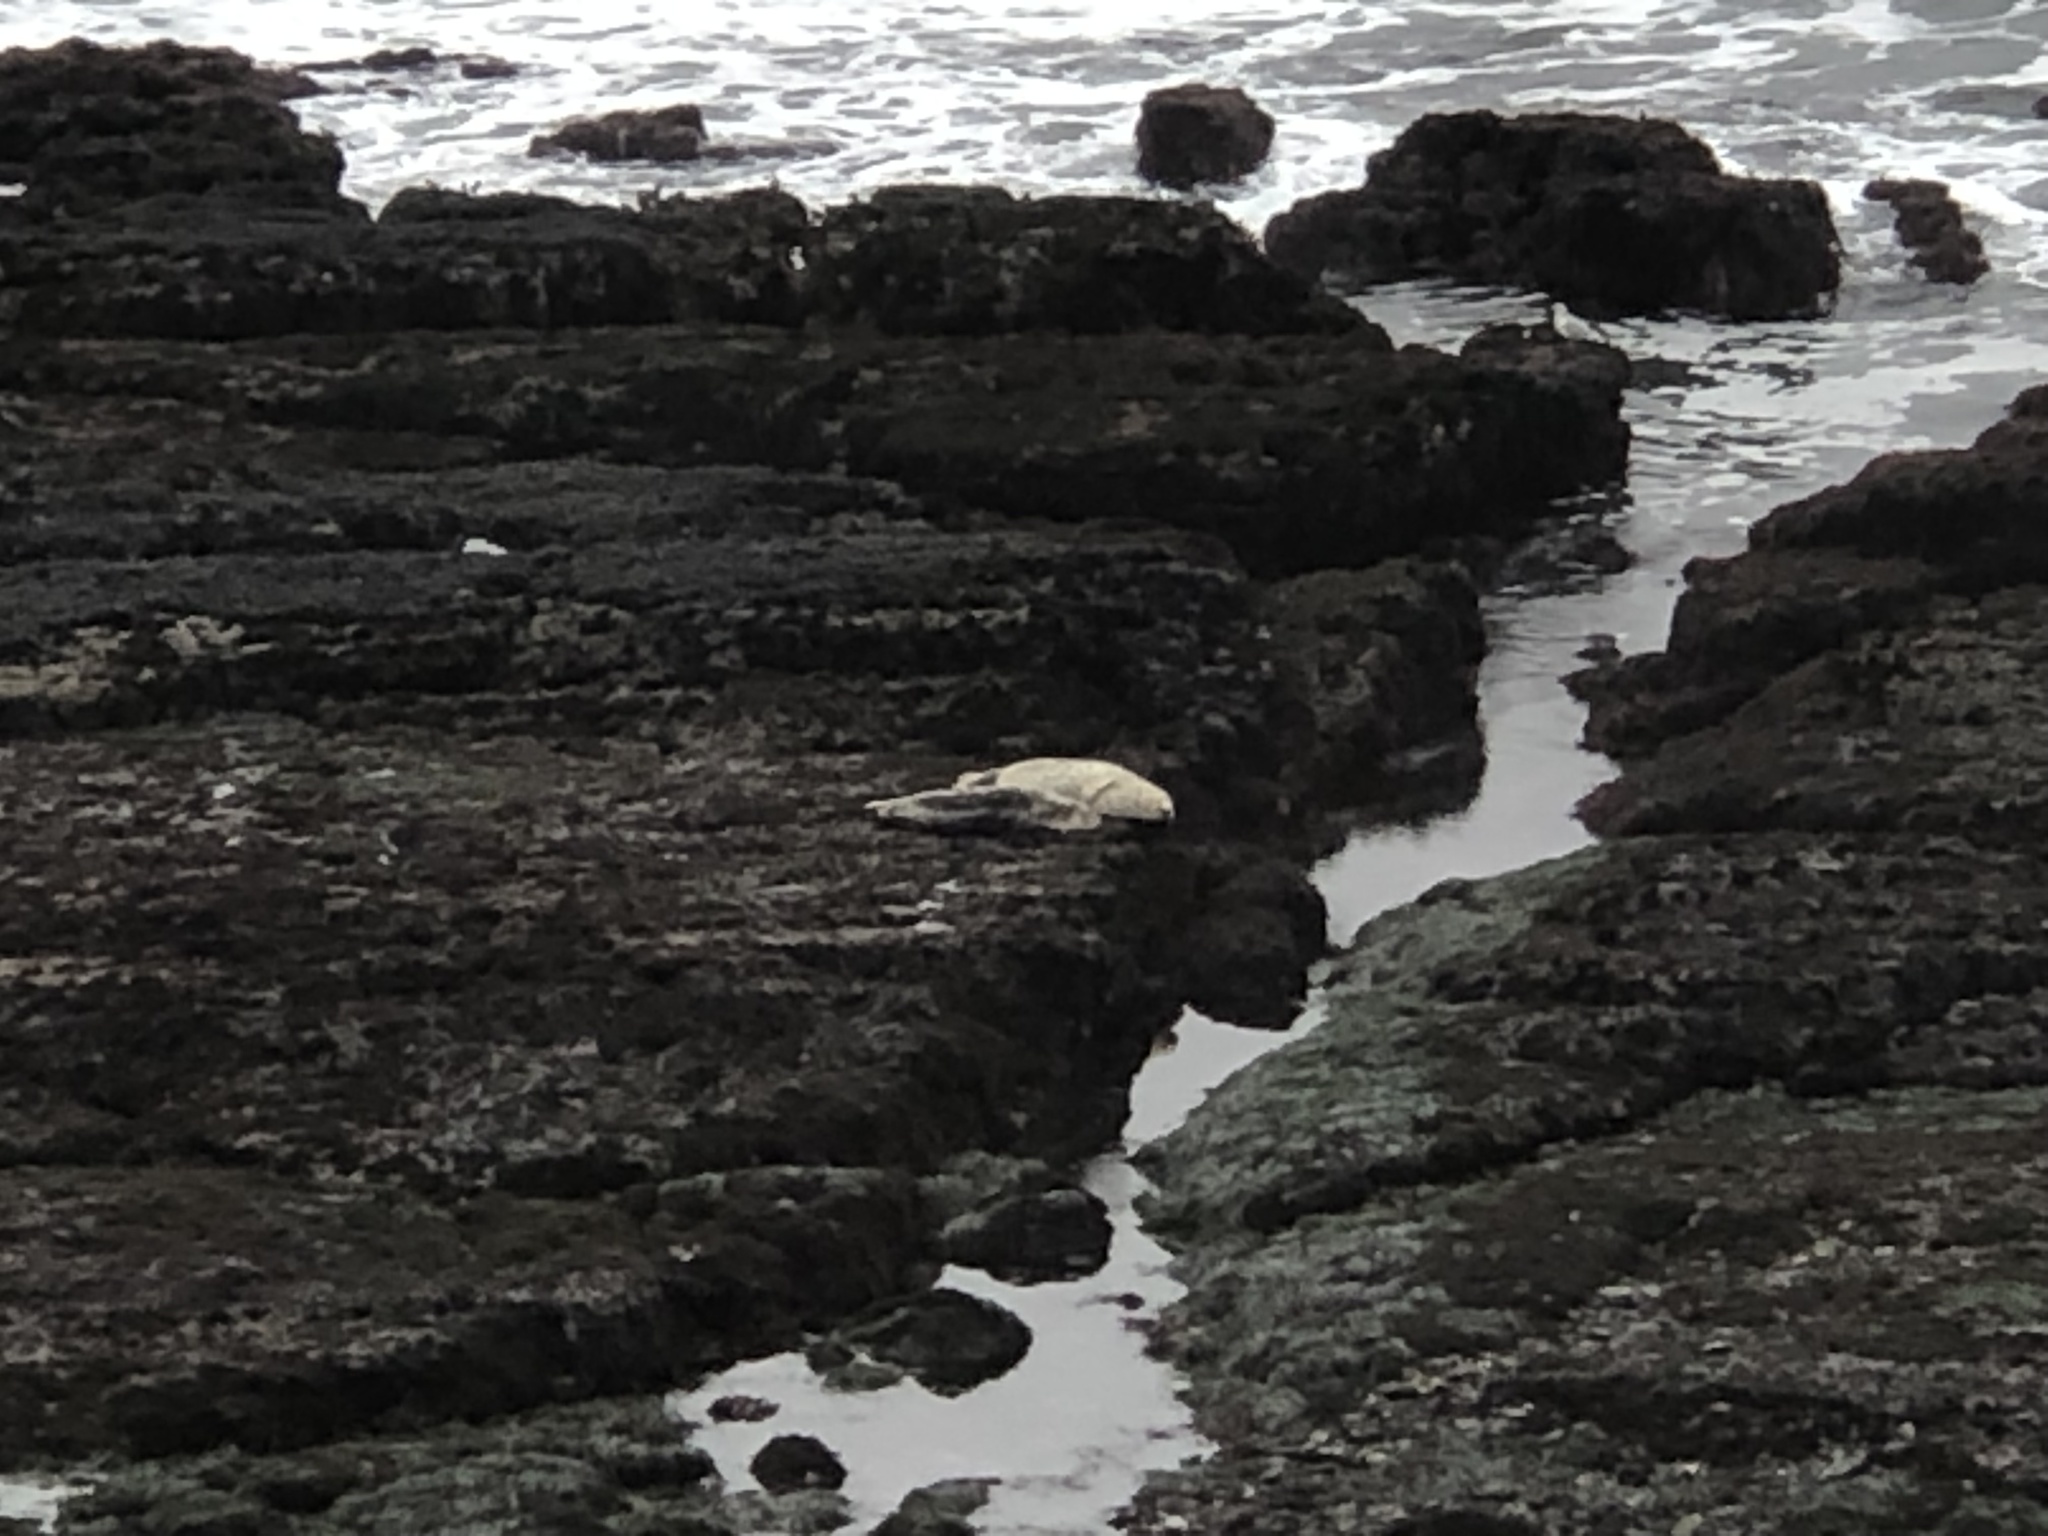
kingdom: Animalia
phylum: Chordata
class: Mammalia
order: Carnivora
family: Phocidae
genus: Phoca
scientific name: Phoca vitulina
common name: Harbor seal
